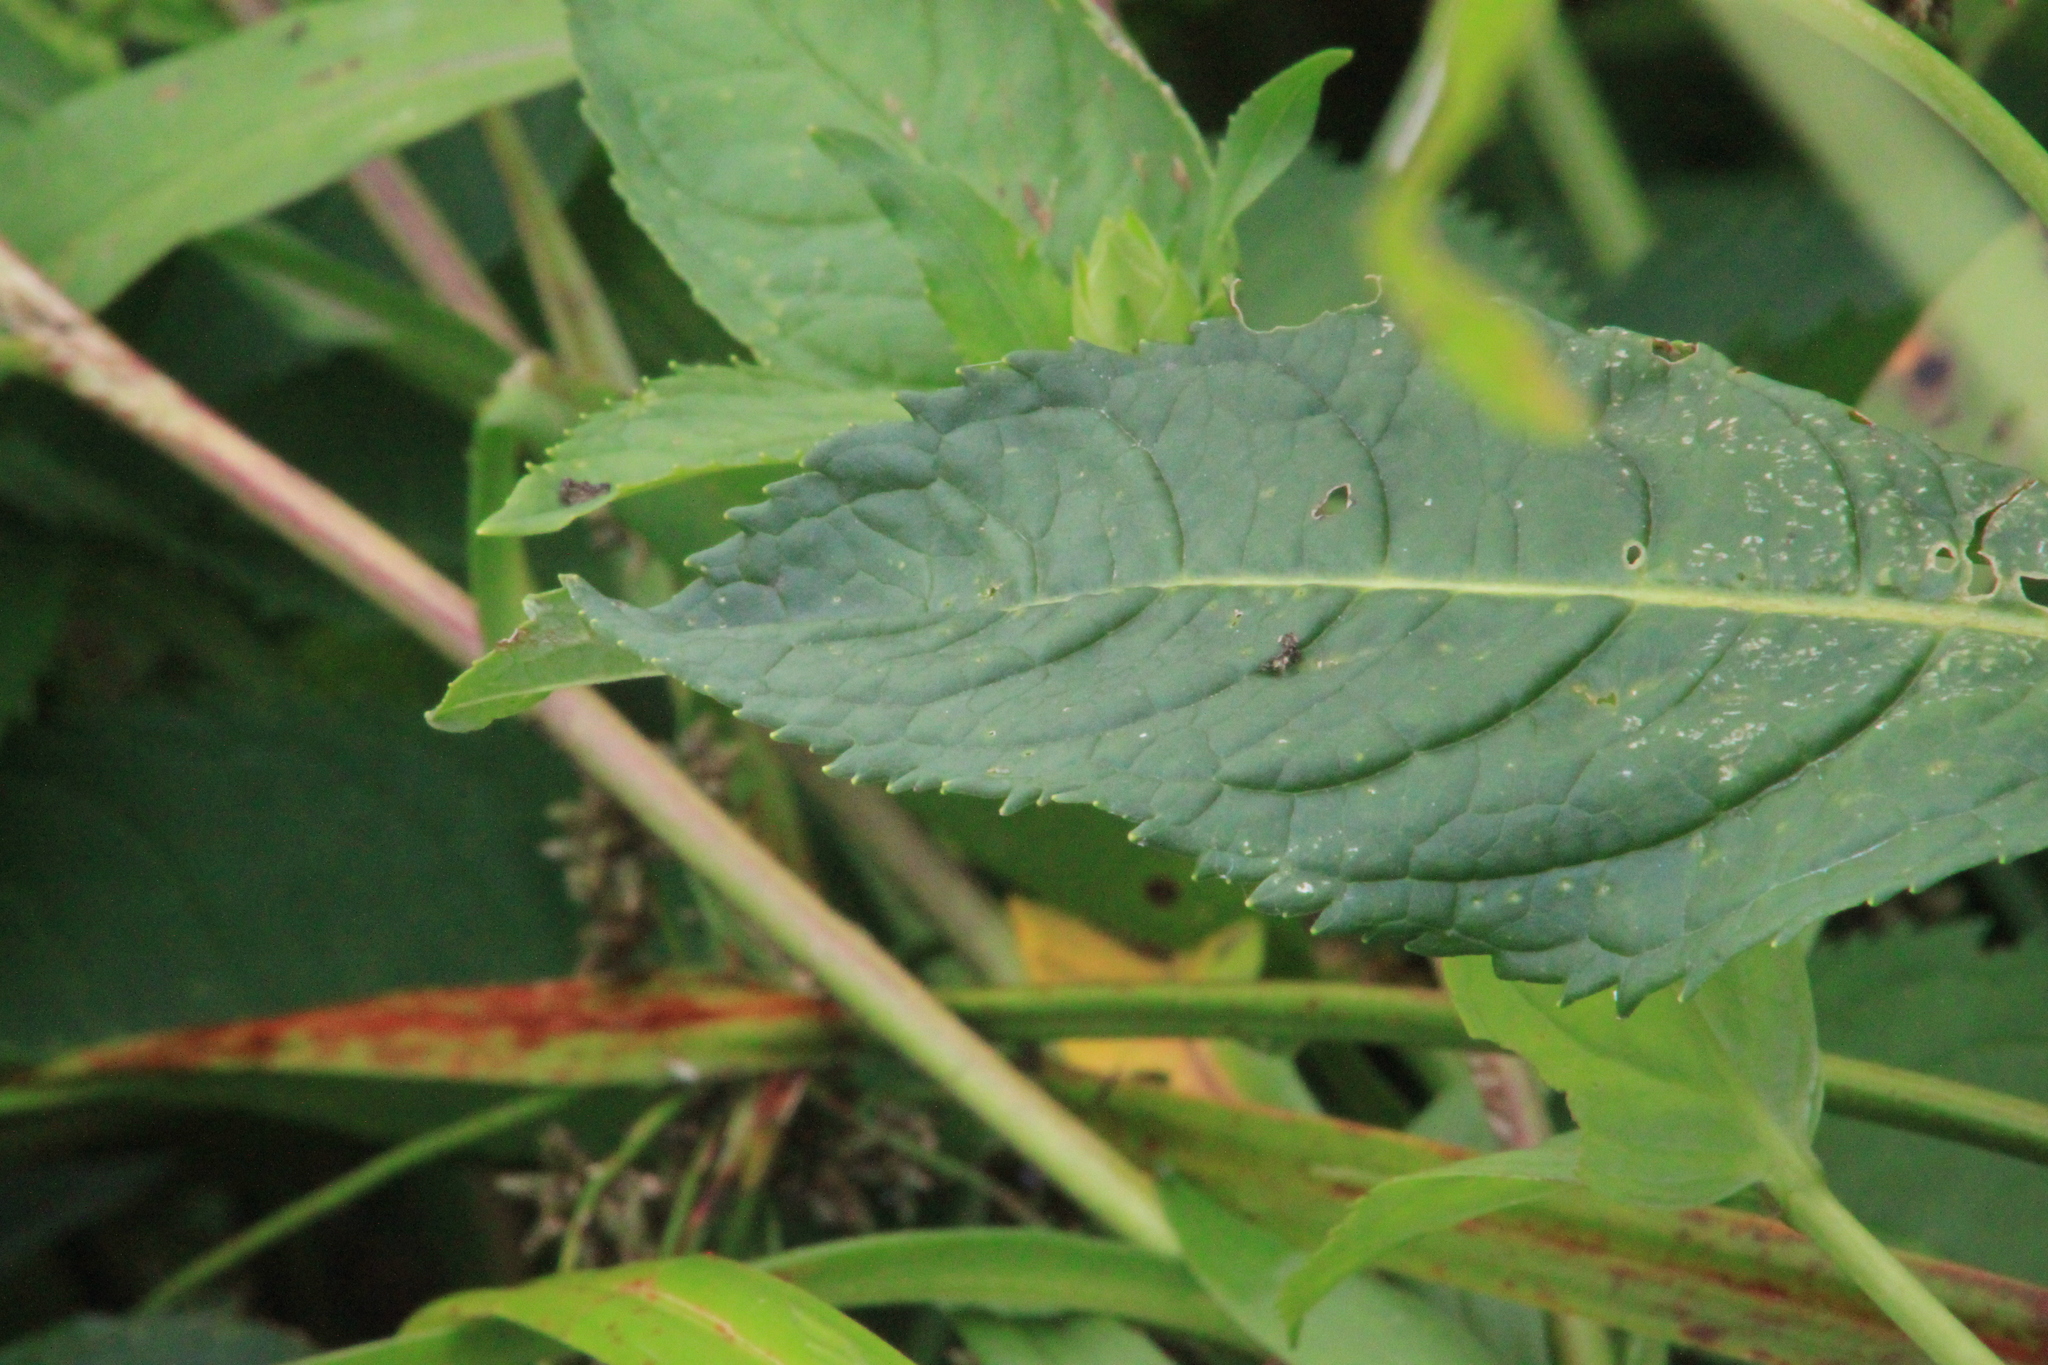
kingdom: Plantae
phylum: Tracheophyta
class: Magnoliopsida
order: Lamiales
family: Plantaginaceae
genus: Chelone
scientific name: Chelone glabra
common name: Snakehead
